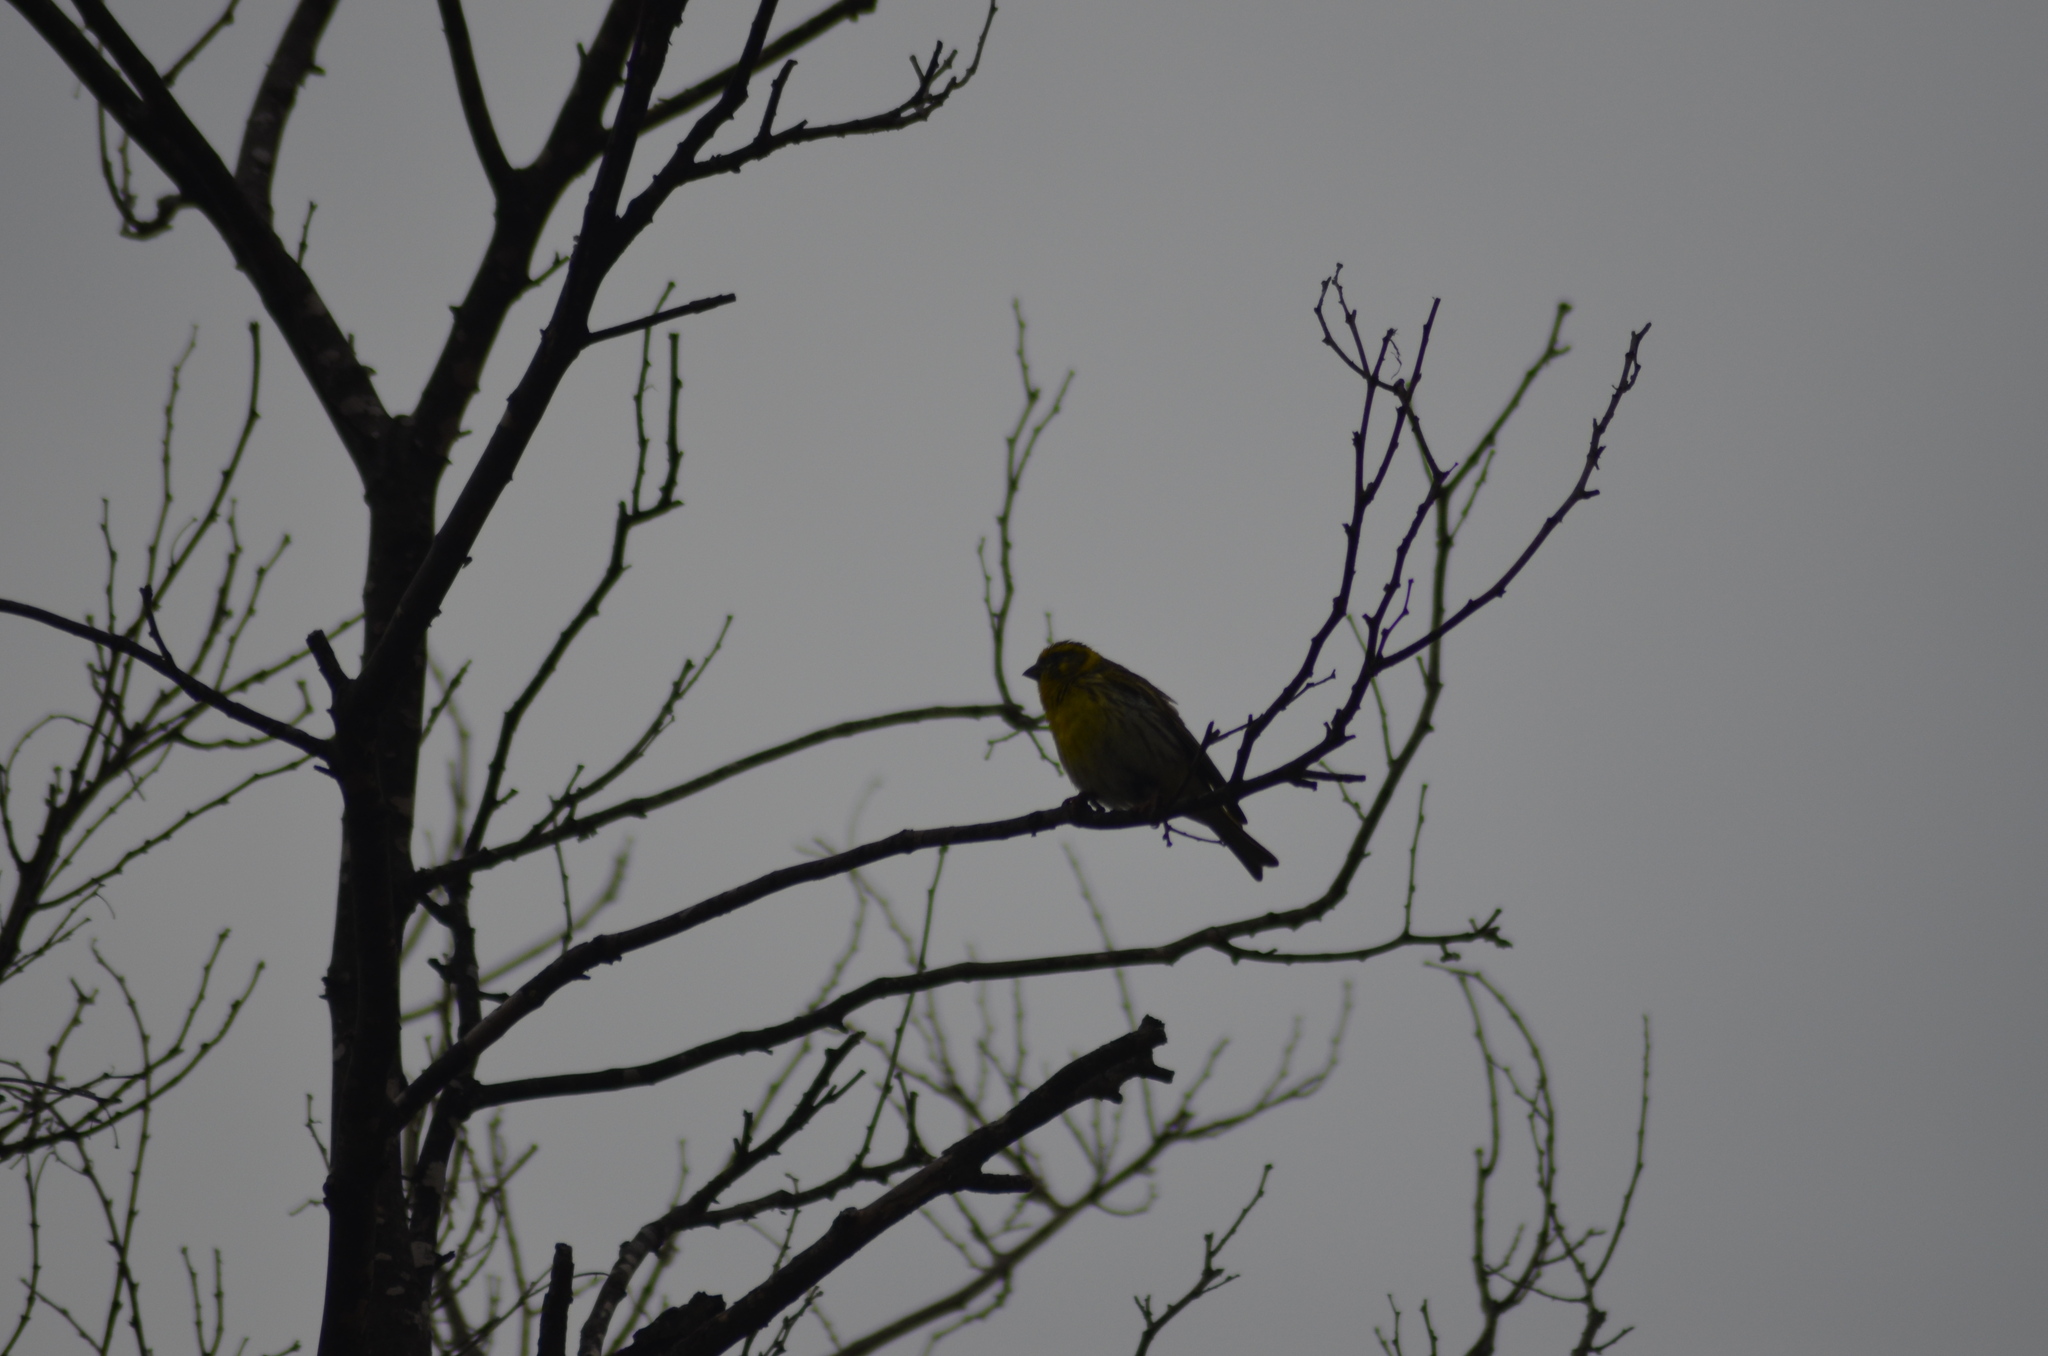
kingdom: Animalia
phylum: Chordata
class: Aves
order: Passeriformes
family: Fringillidae
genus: Serinus
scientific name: Serinus serinus
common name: European serin
